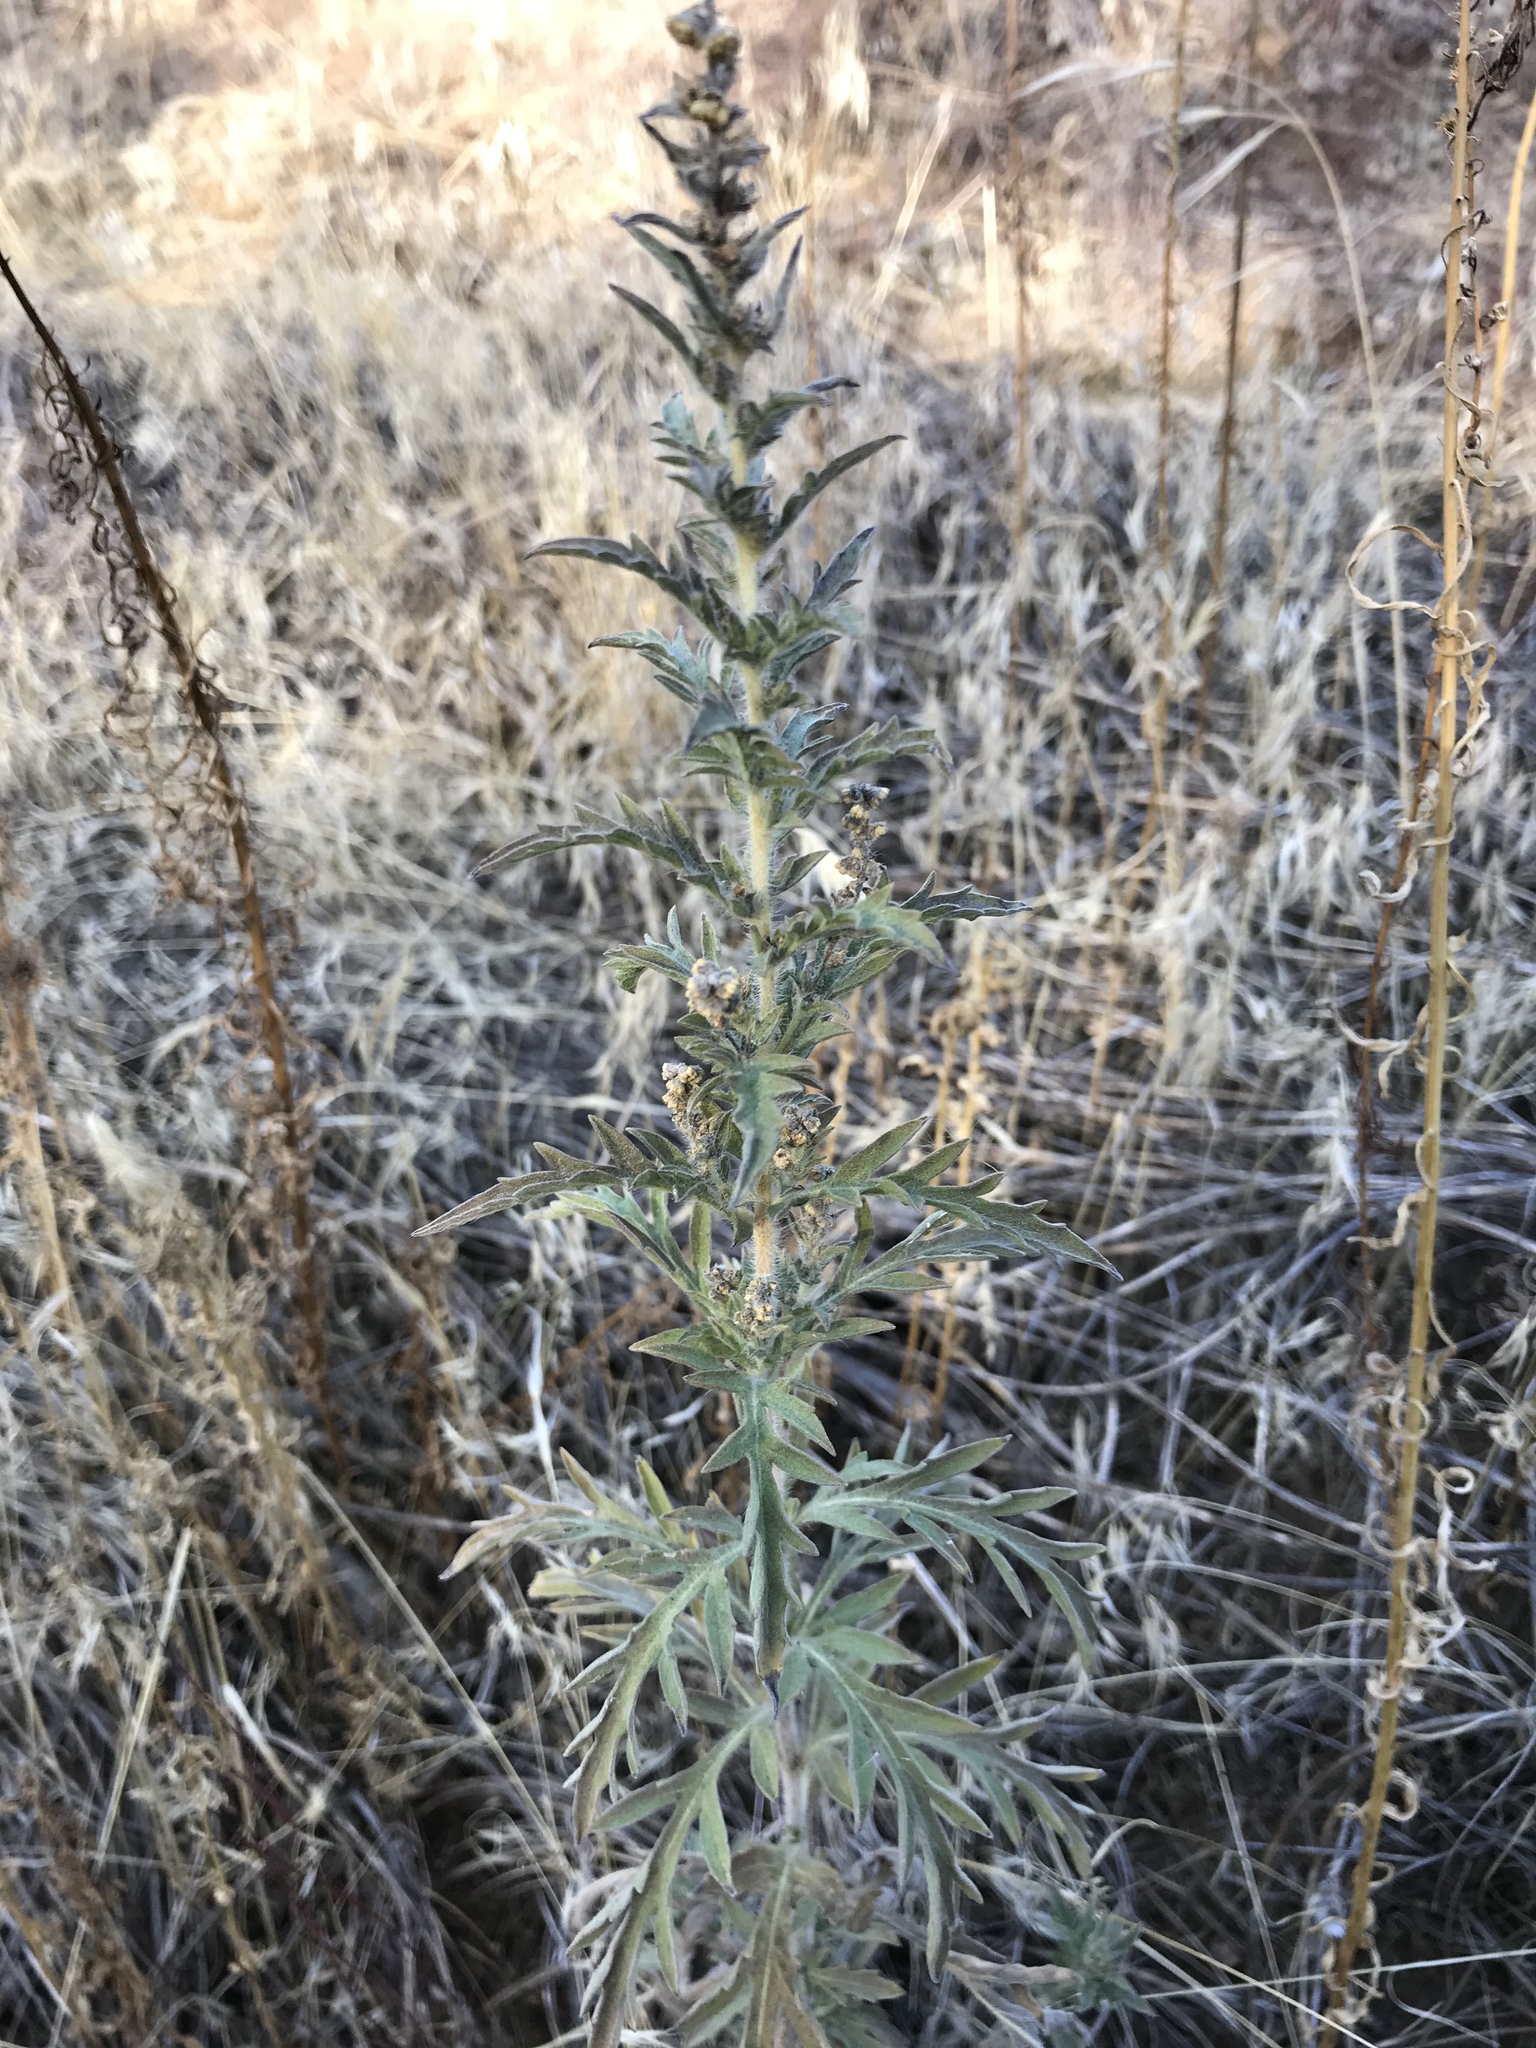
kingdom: Plantae
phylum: Tracheophyta
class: Magnoliopsida
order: Asterales
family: Asteraceae
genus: Ambrosia
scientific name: Ambrosia psilostachya
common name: Perennial ragweed
